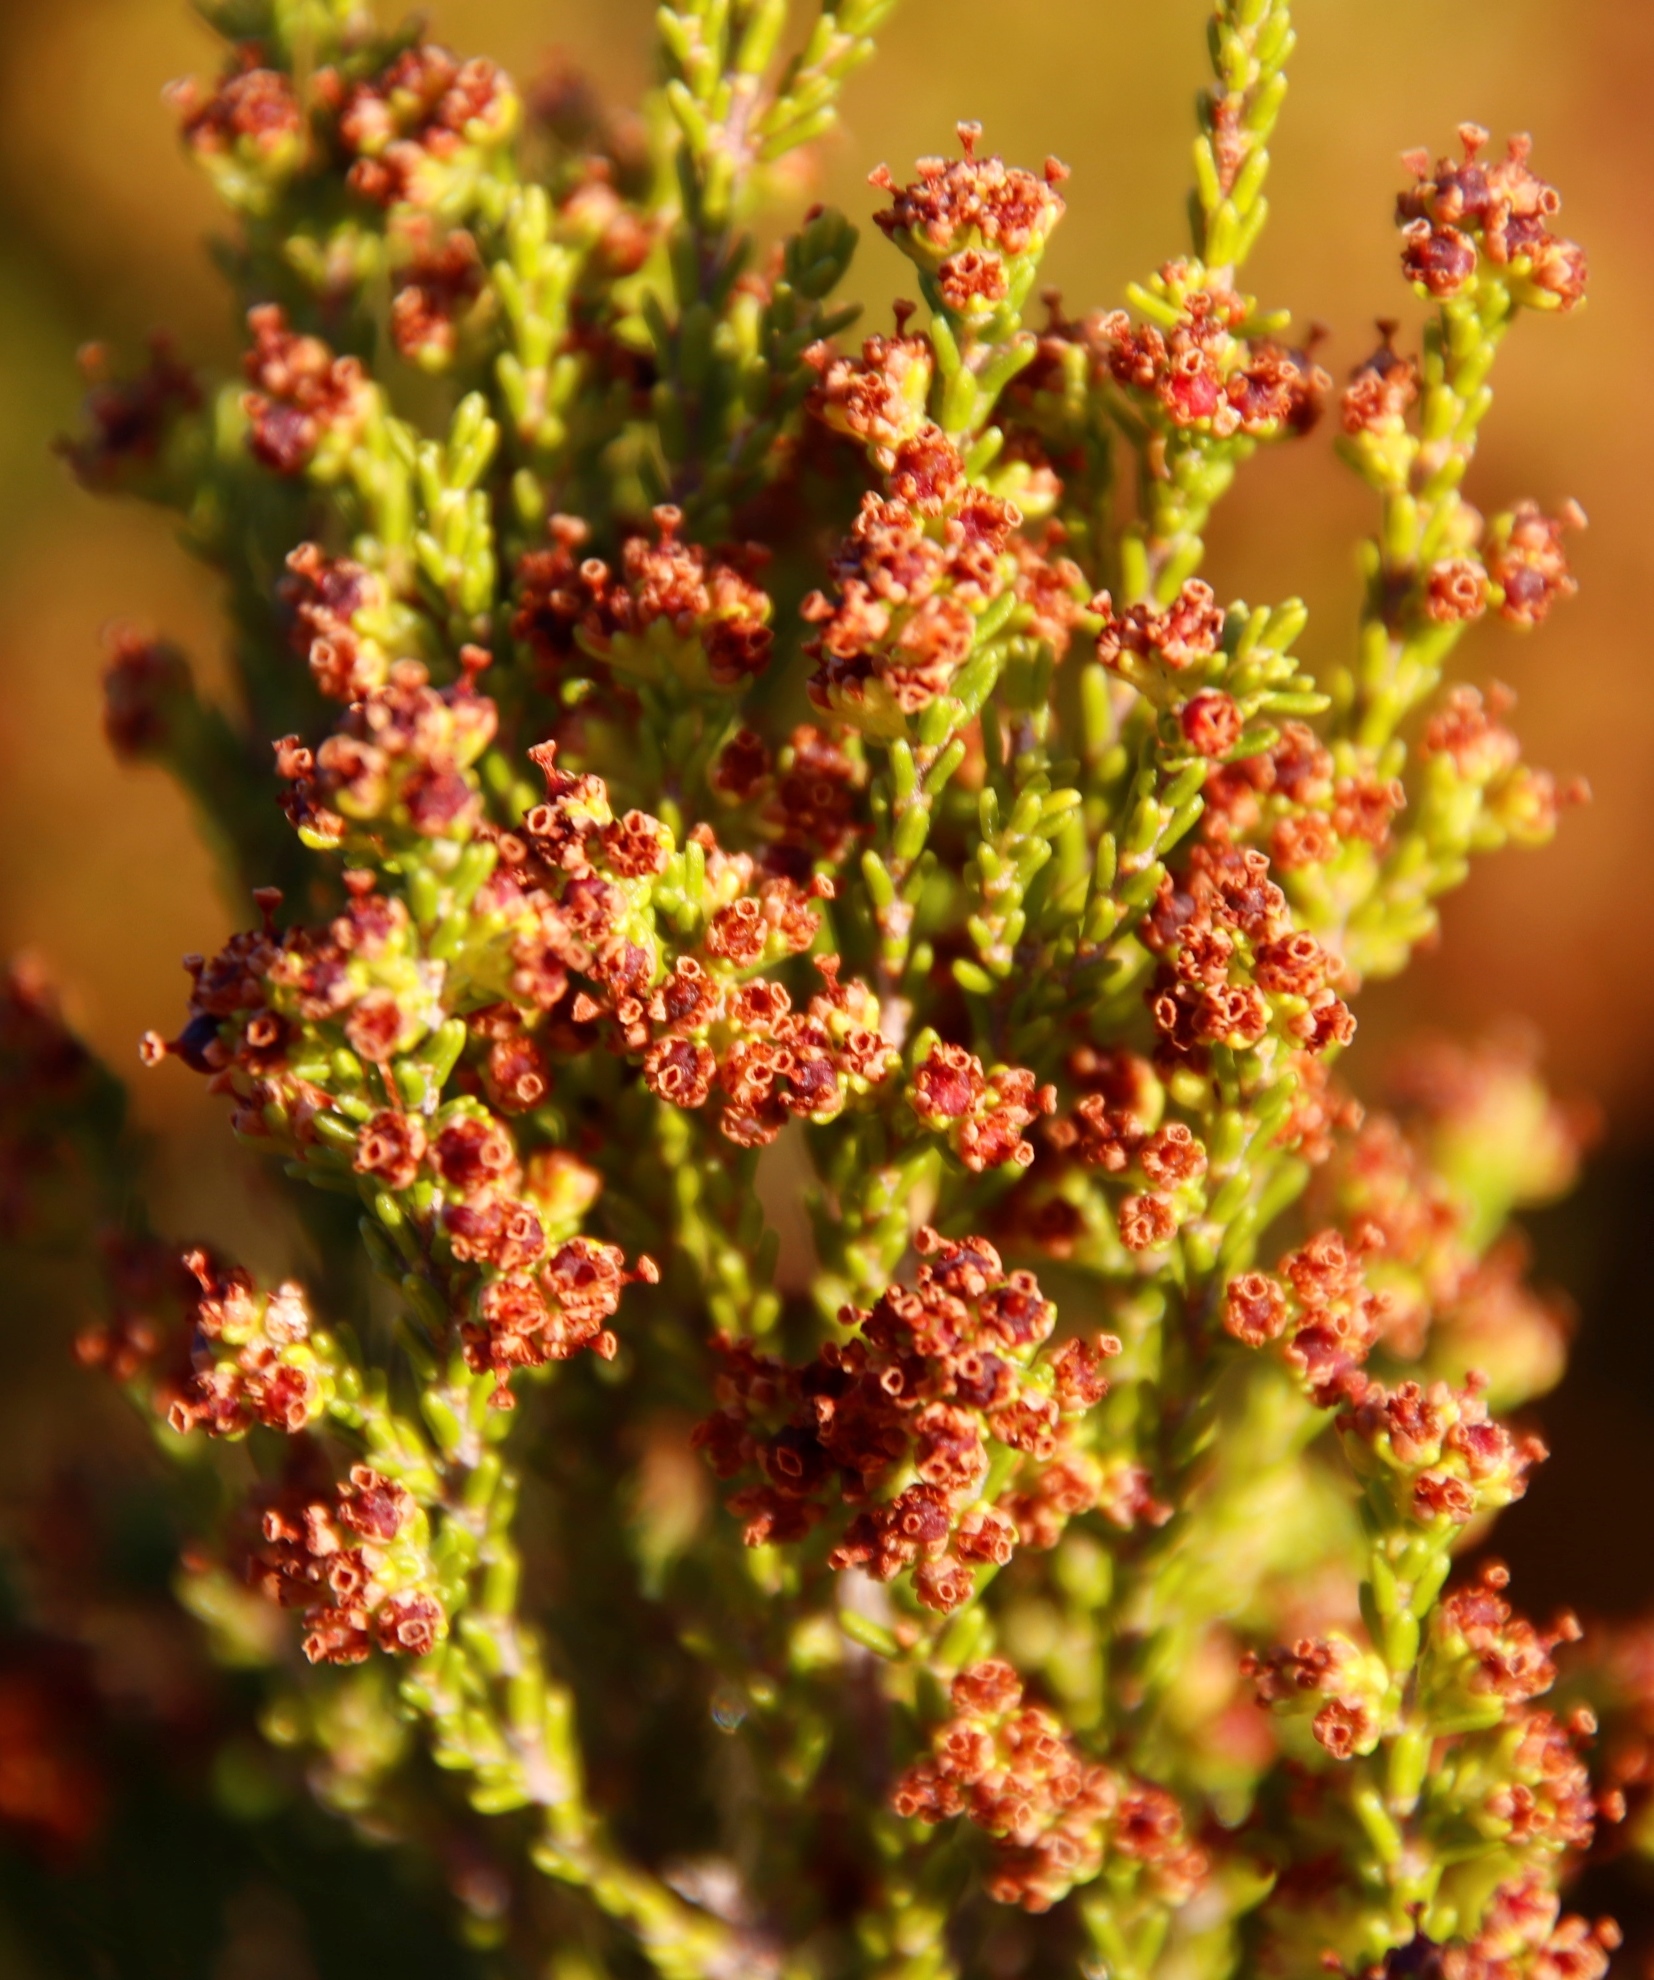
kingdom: Plantae
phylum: Tracheophyta
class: Magnoliopsida
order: Ericales
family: Ericaceae
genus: Erica
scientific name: Erica tristis
